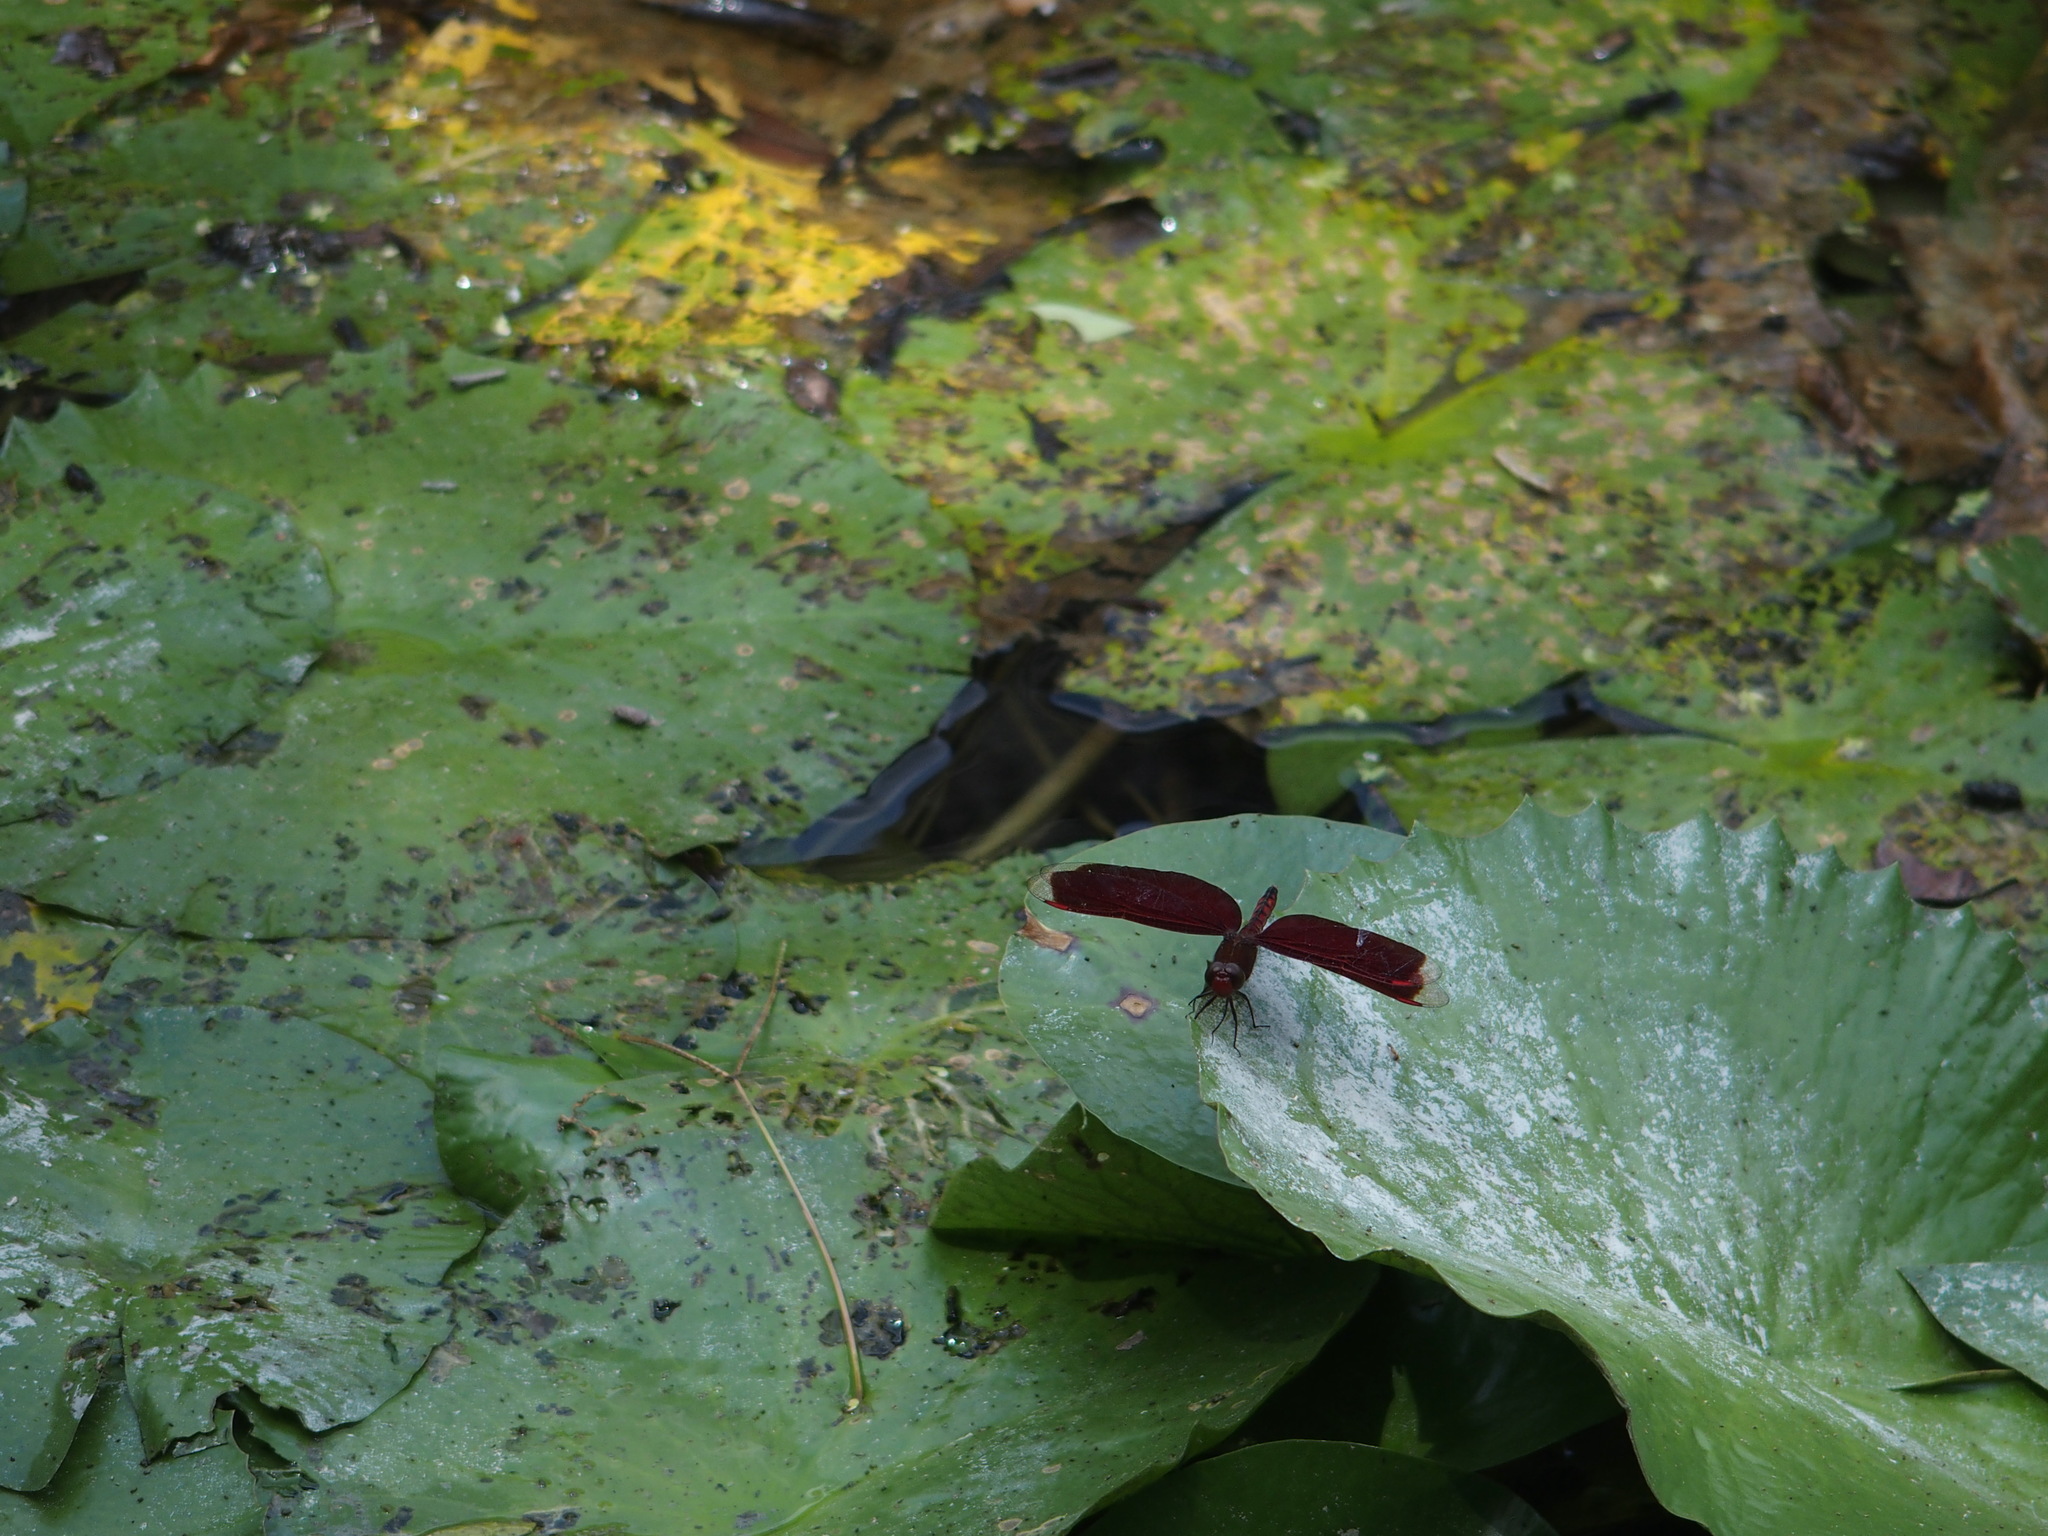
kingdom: Animalia
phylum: Arthropoda
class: Insecta
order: Odonata
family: Libellulidae
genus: Neurothemis
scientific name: Neurothemis taiwanensis
